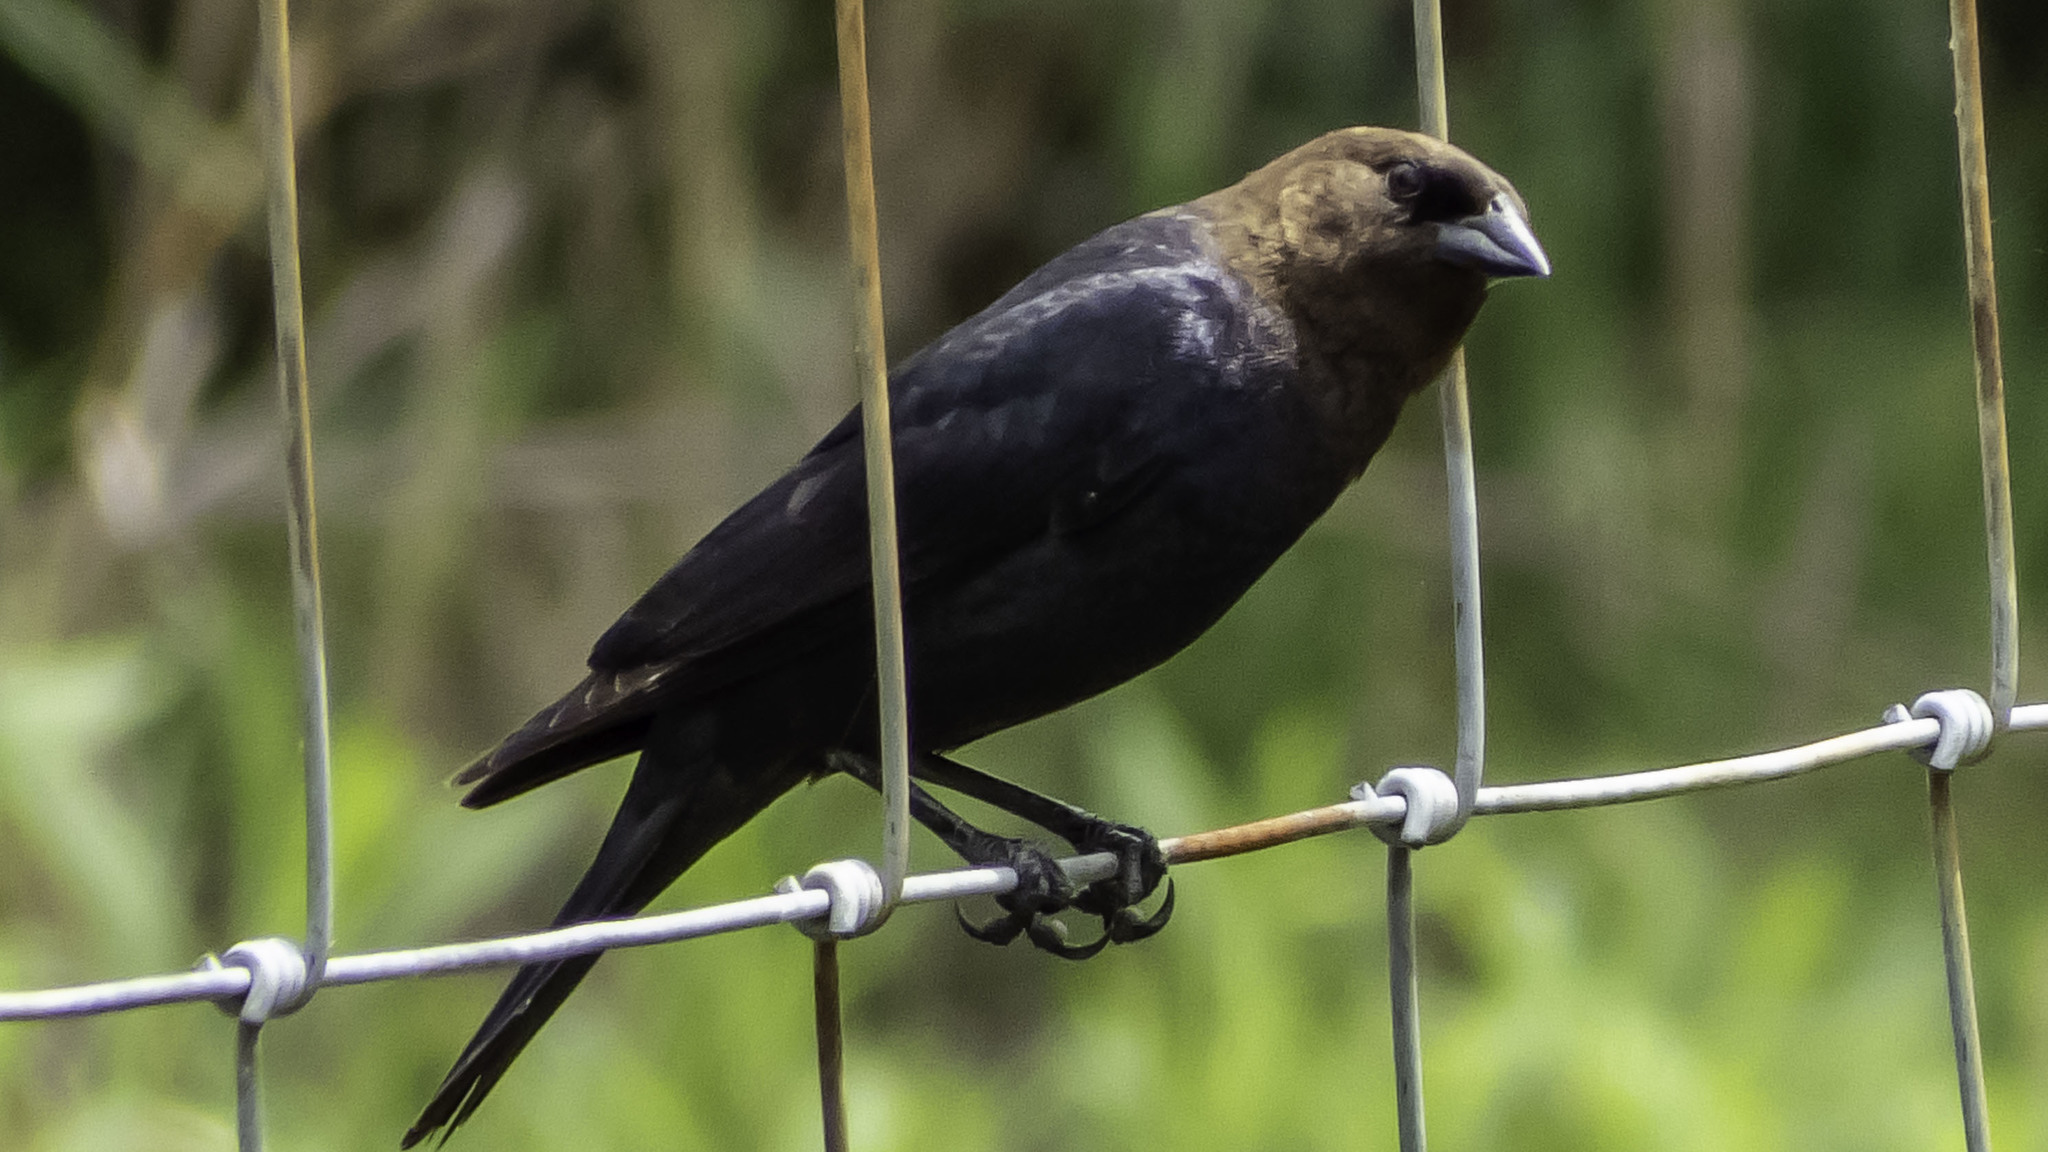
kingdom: Animalia
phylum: Chordata
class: Aves
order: Passeriformes
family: Icteridae
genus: Molothrus
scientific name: Molothrus ater
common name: Brown-headed cowbird
